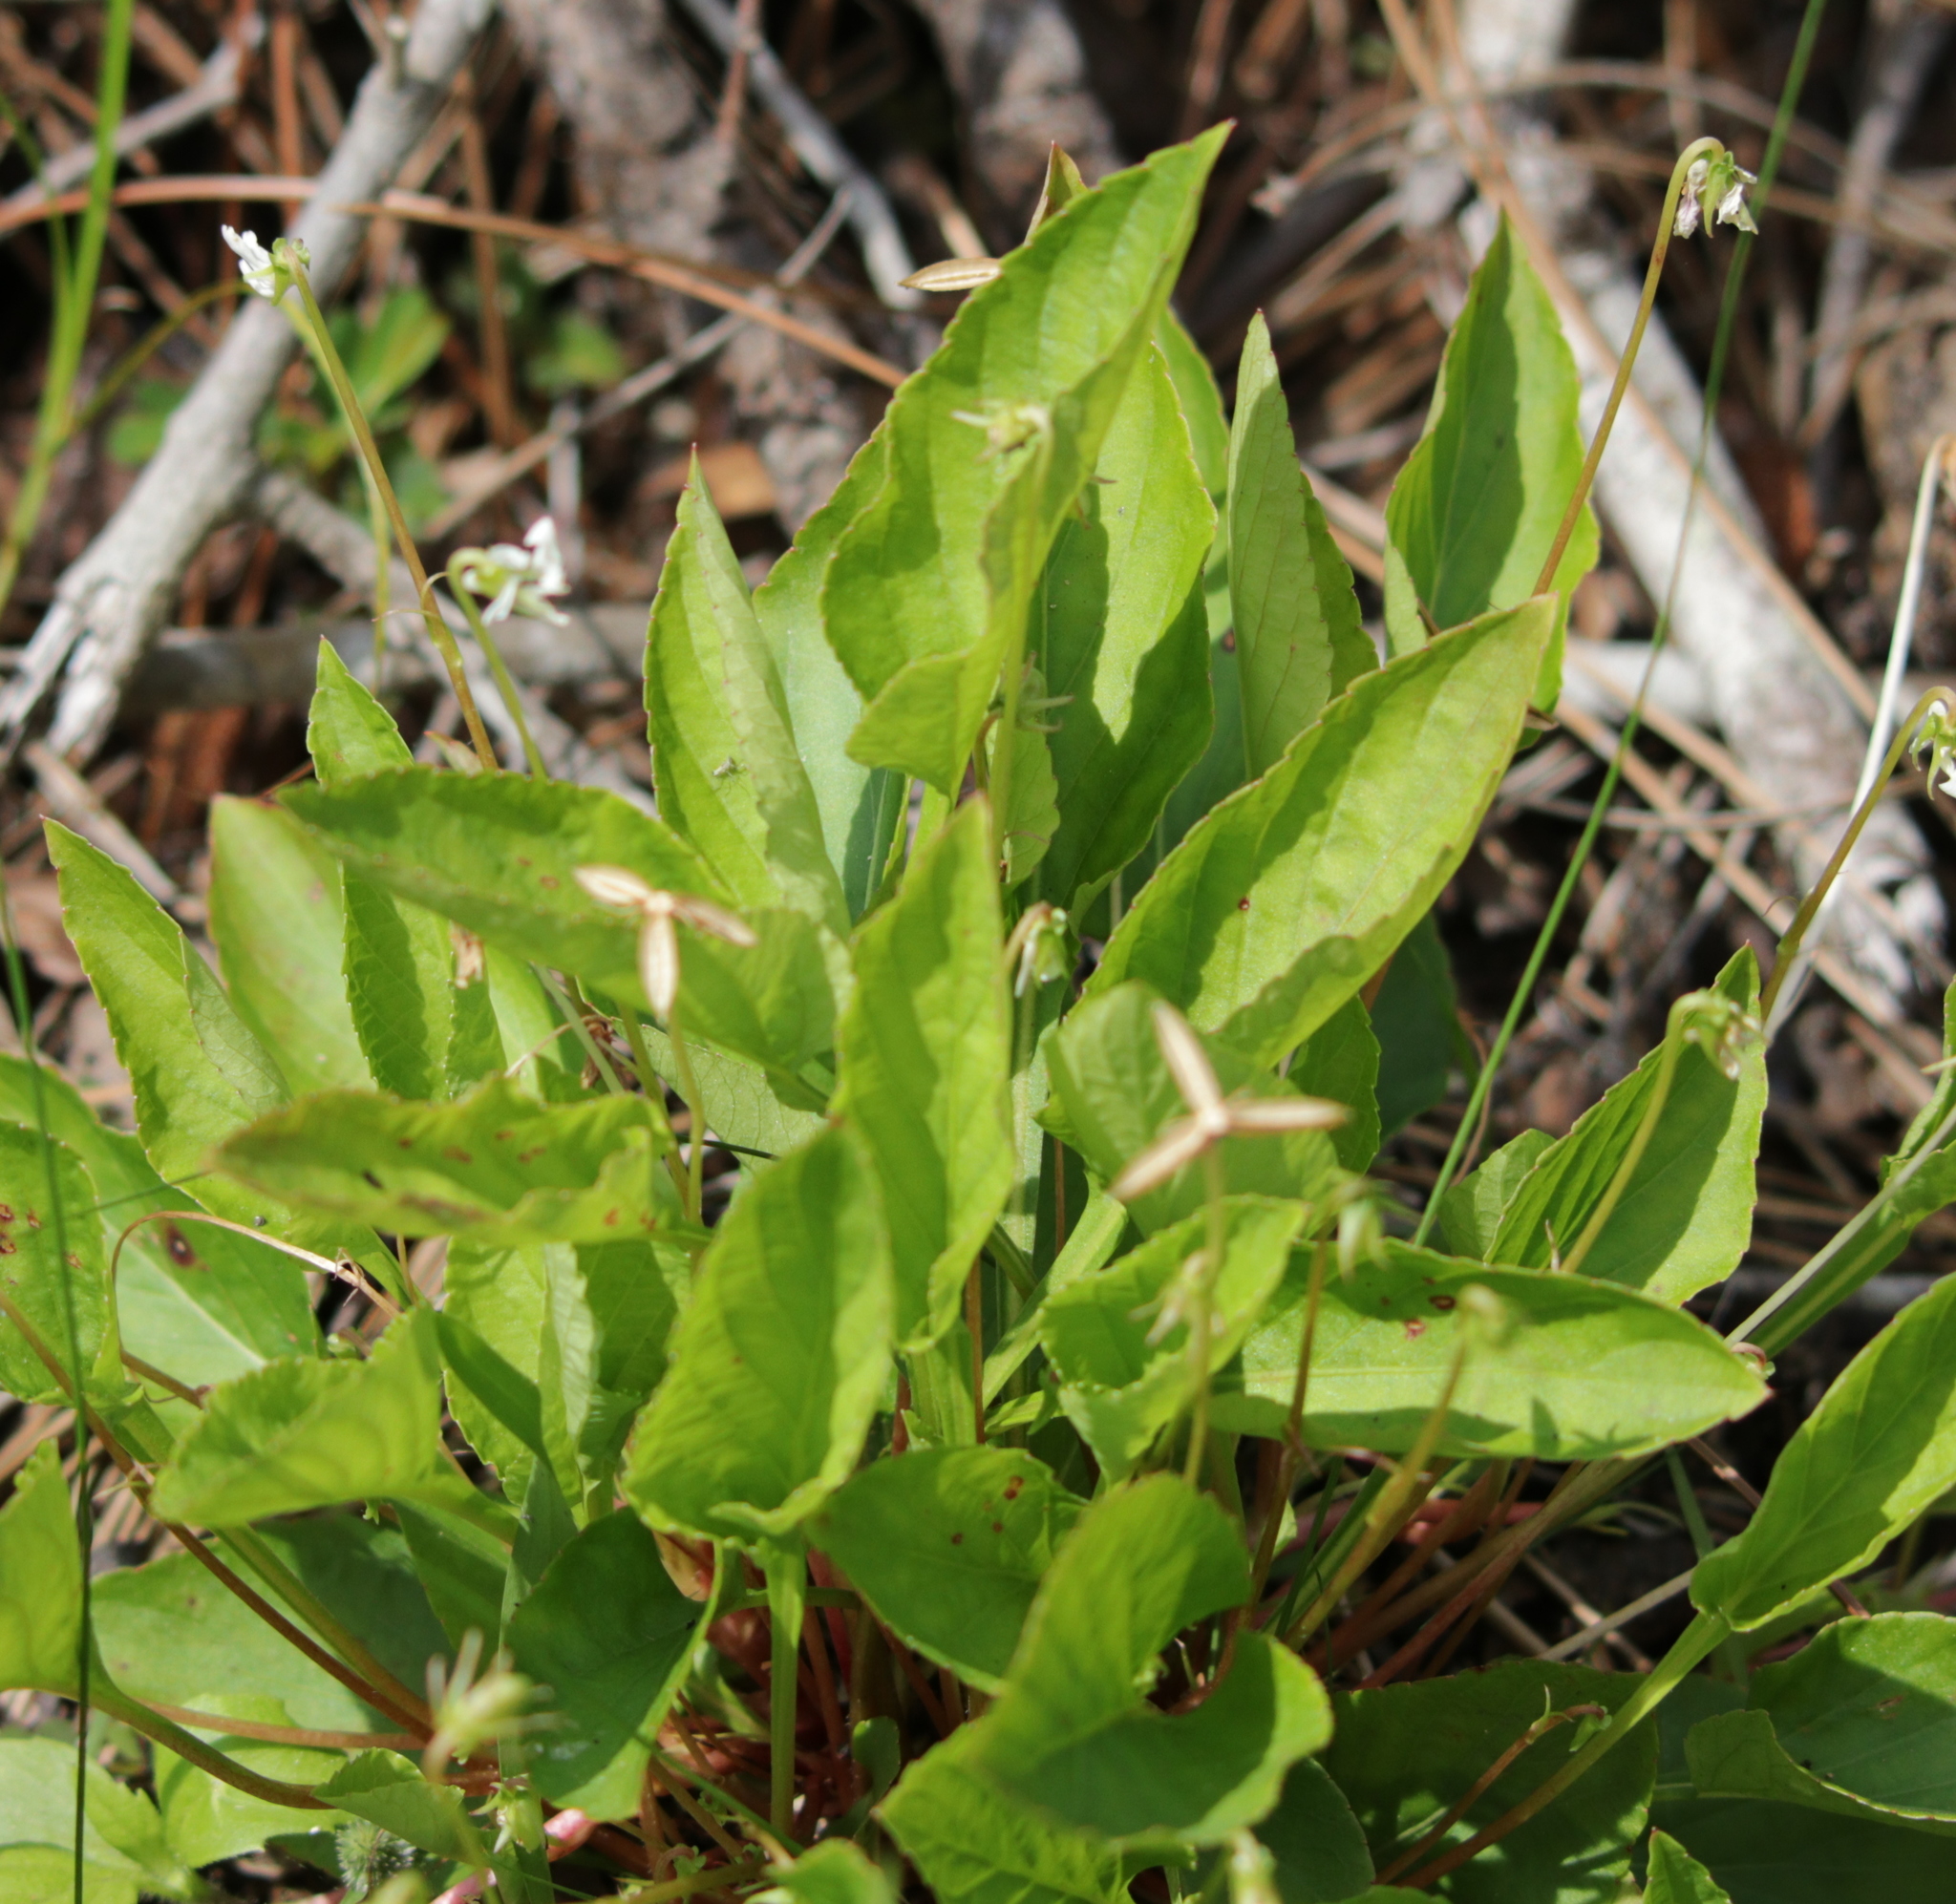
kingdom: Plantae
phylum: Tracheophyta
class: Magnoliopsida
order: Malpighiales
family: Violaceae
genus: Viola
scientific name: Viola primulifolia
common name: Primrose-leaf violet
